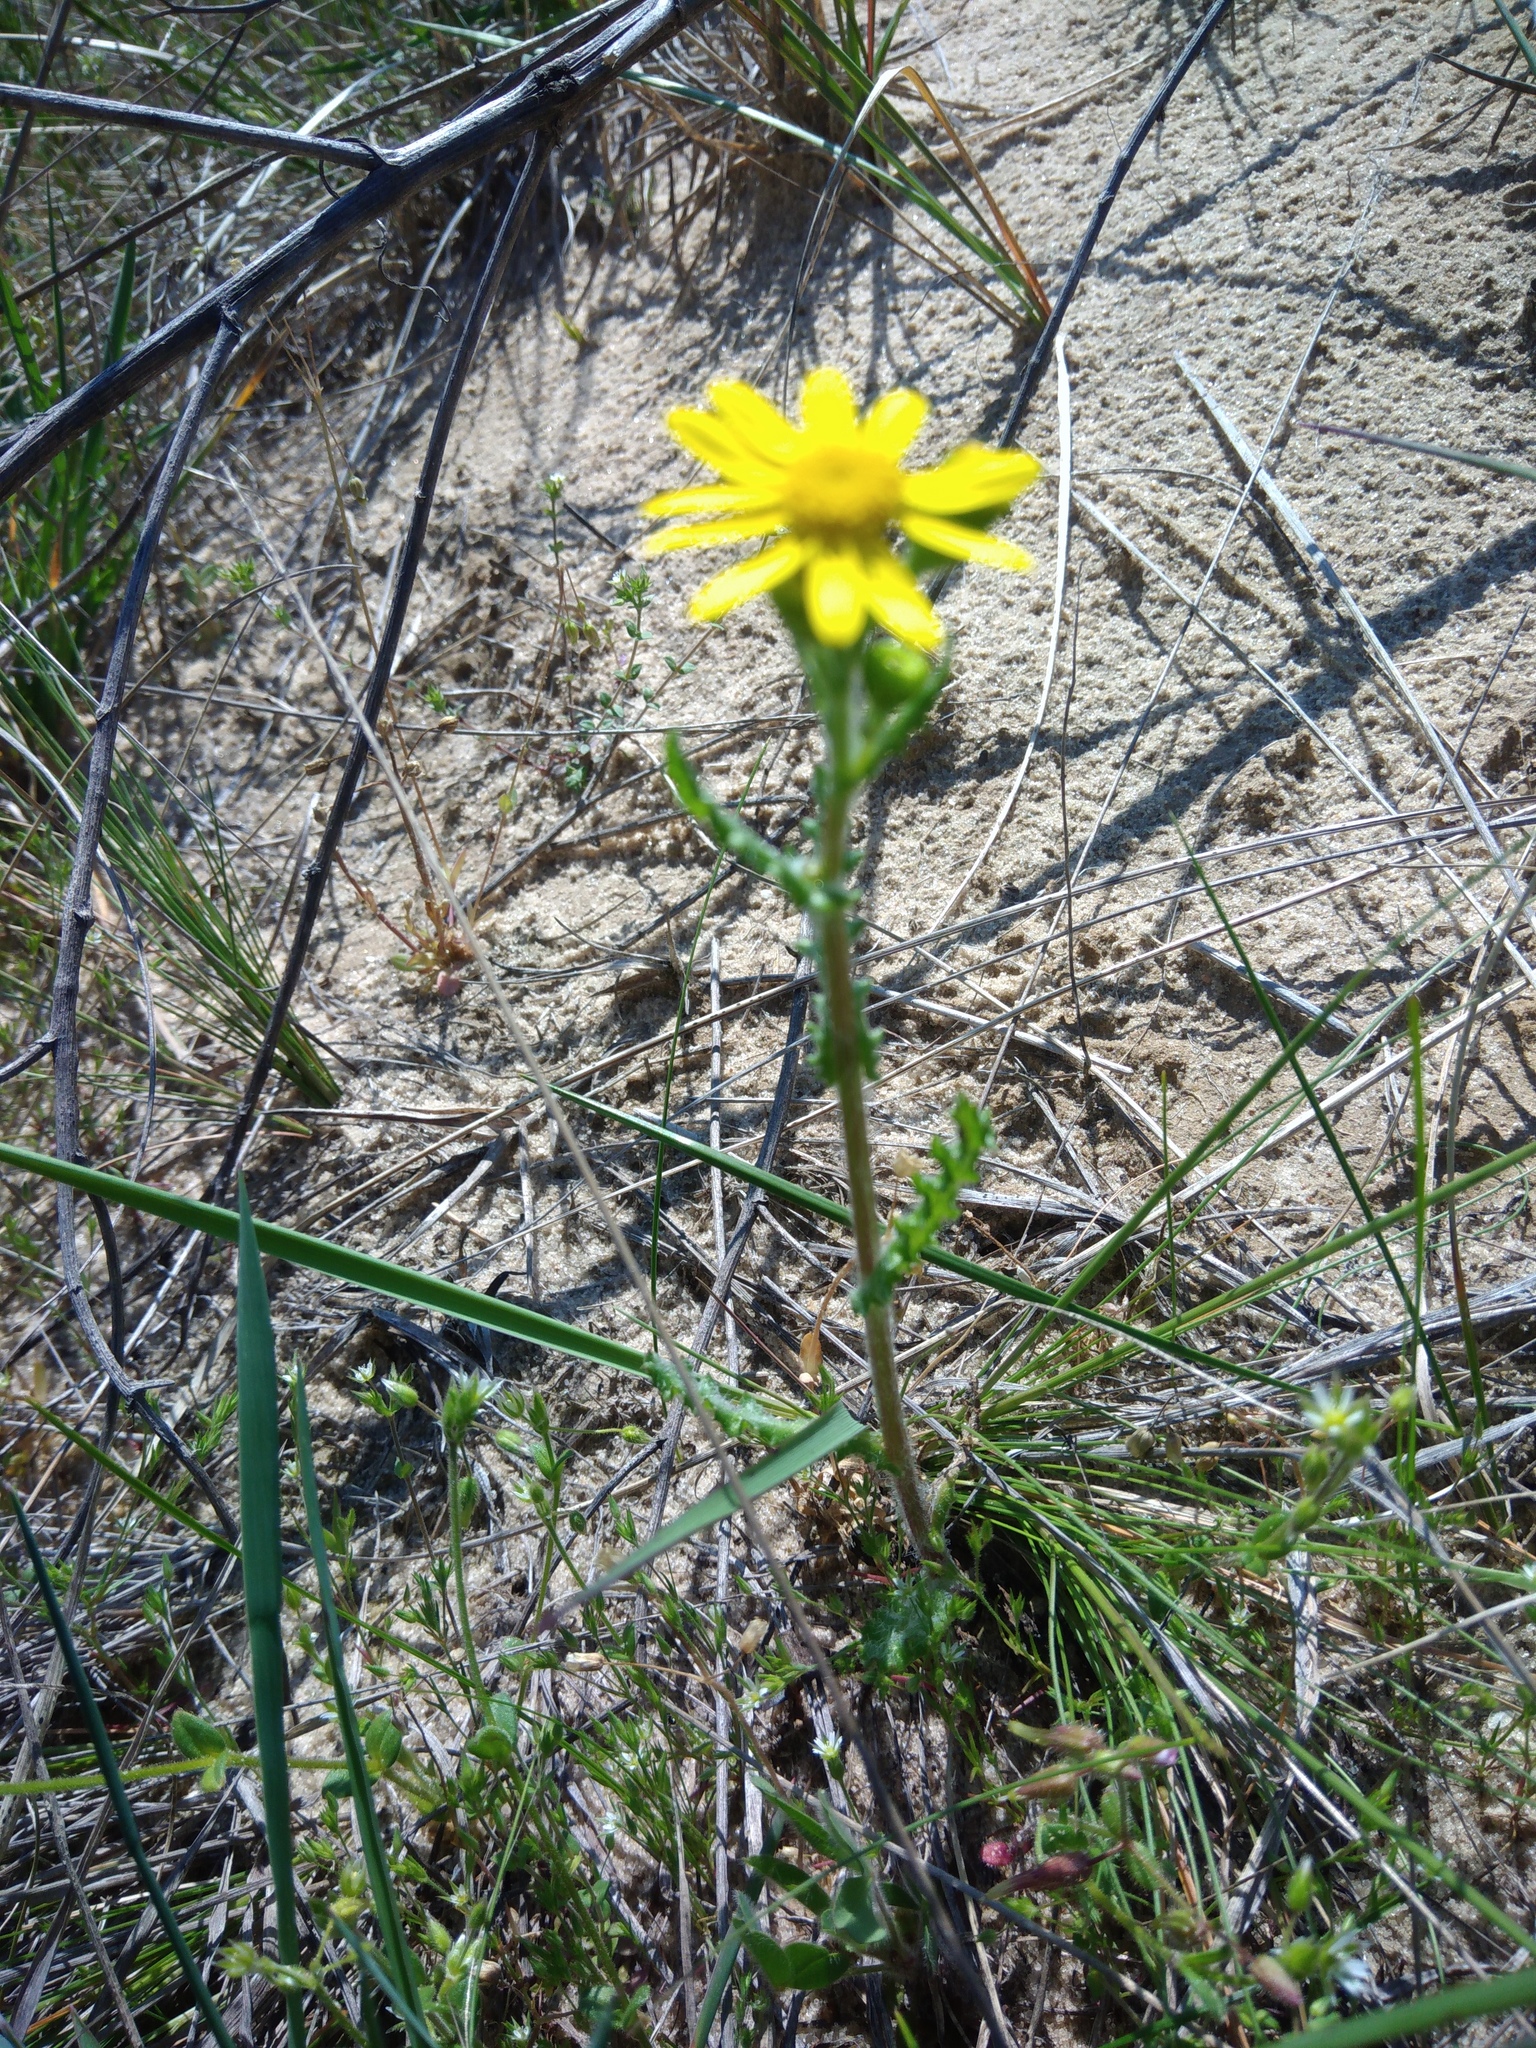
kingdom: Plantae
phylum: Tracheophyta
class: Magnoliopsida
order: Asterales
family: Asteraceae
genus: Senecio
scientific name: Senecio vernalis
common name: Eastern groundsel
